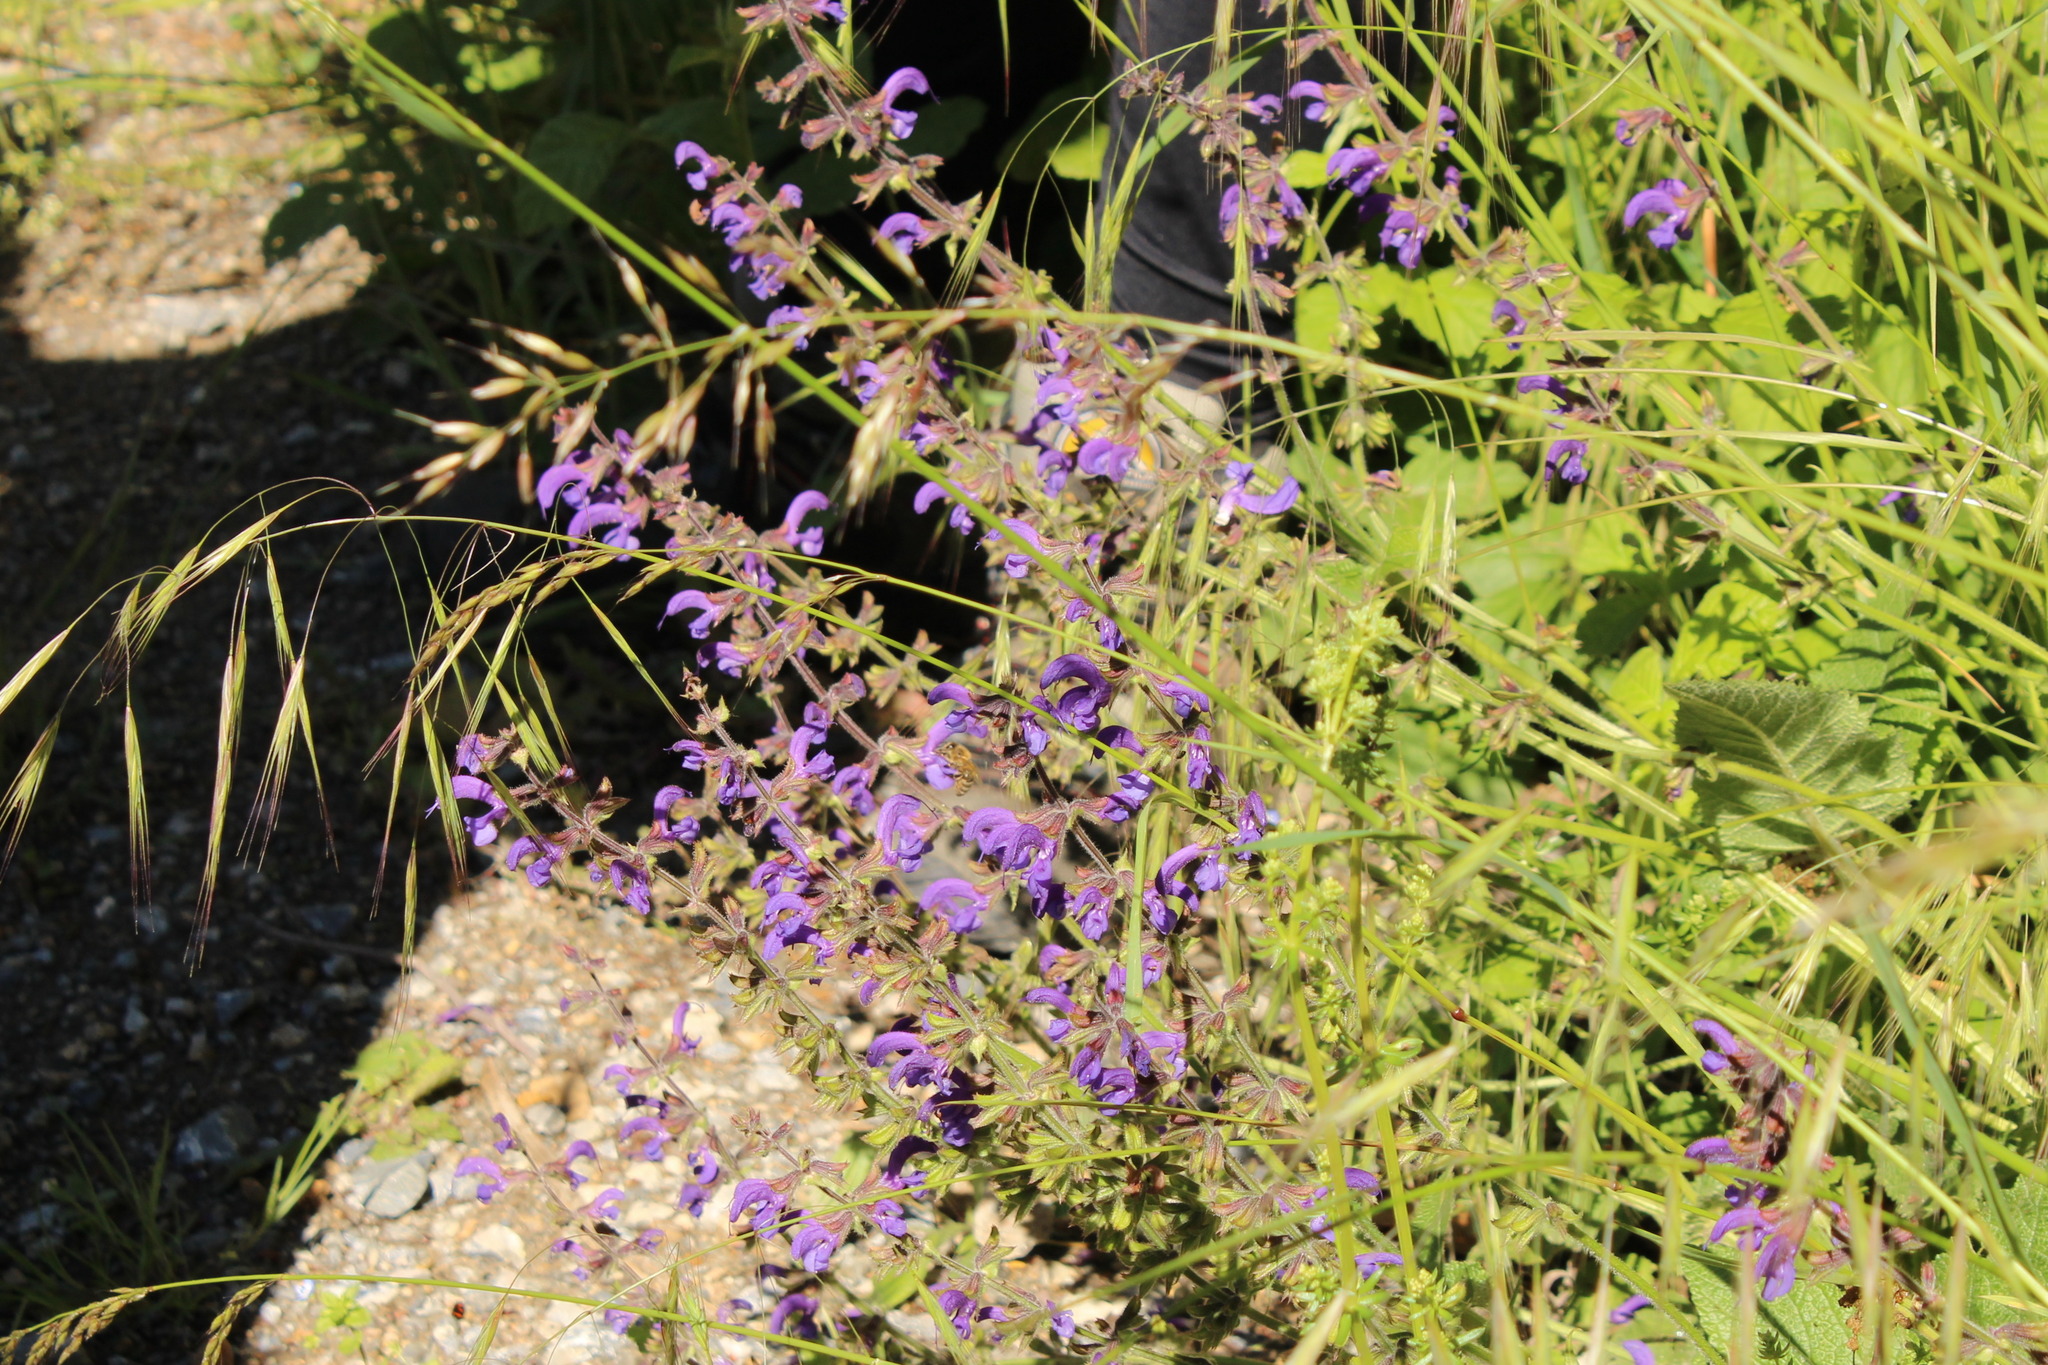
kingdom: Plantae
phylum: Tracheophyta
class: Magnoliopsida
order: Lamiales
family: Lamiaceae
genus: Salvia
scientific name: Salvia pratensis
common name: Meadow sage
